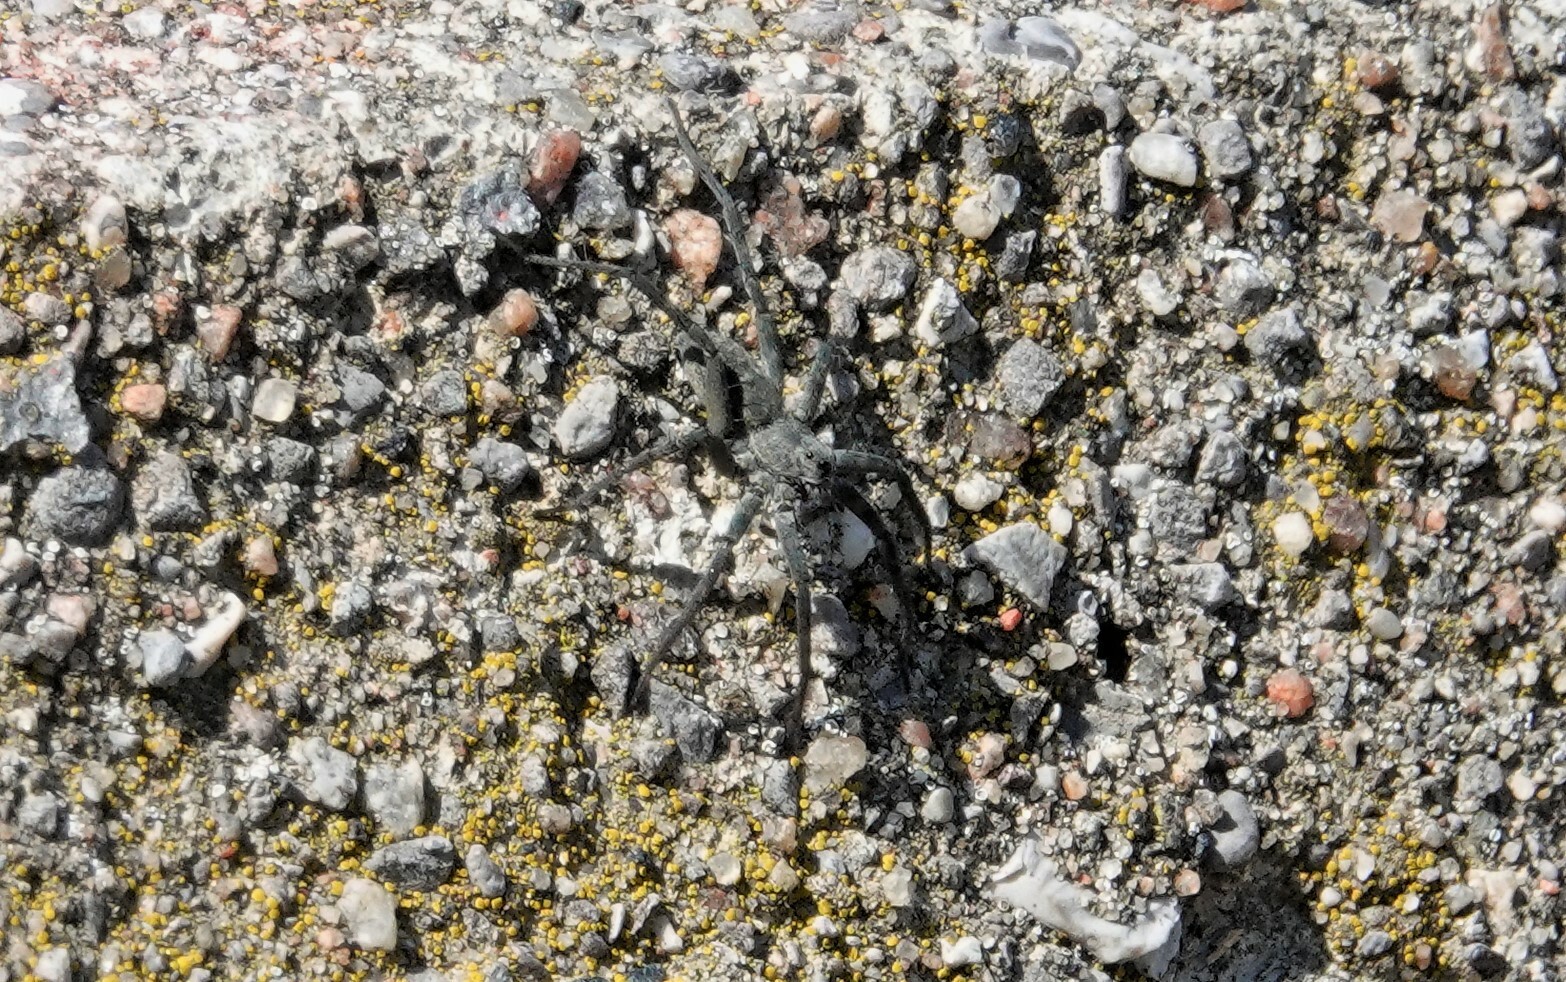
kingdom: Animalia
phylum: Arthropoda
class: Arachnida
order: Araneae
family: Lycosidae
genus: Pardosa
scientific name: Pardosa lapidicina
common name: Stone spider
